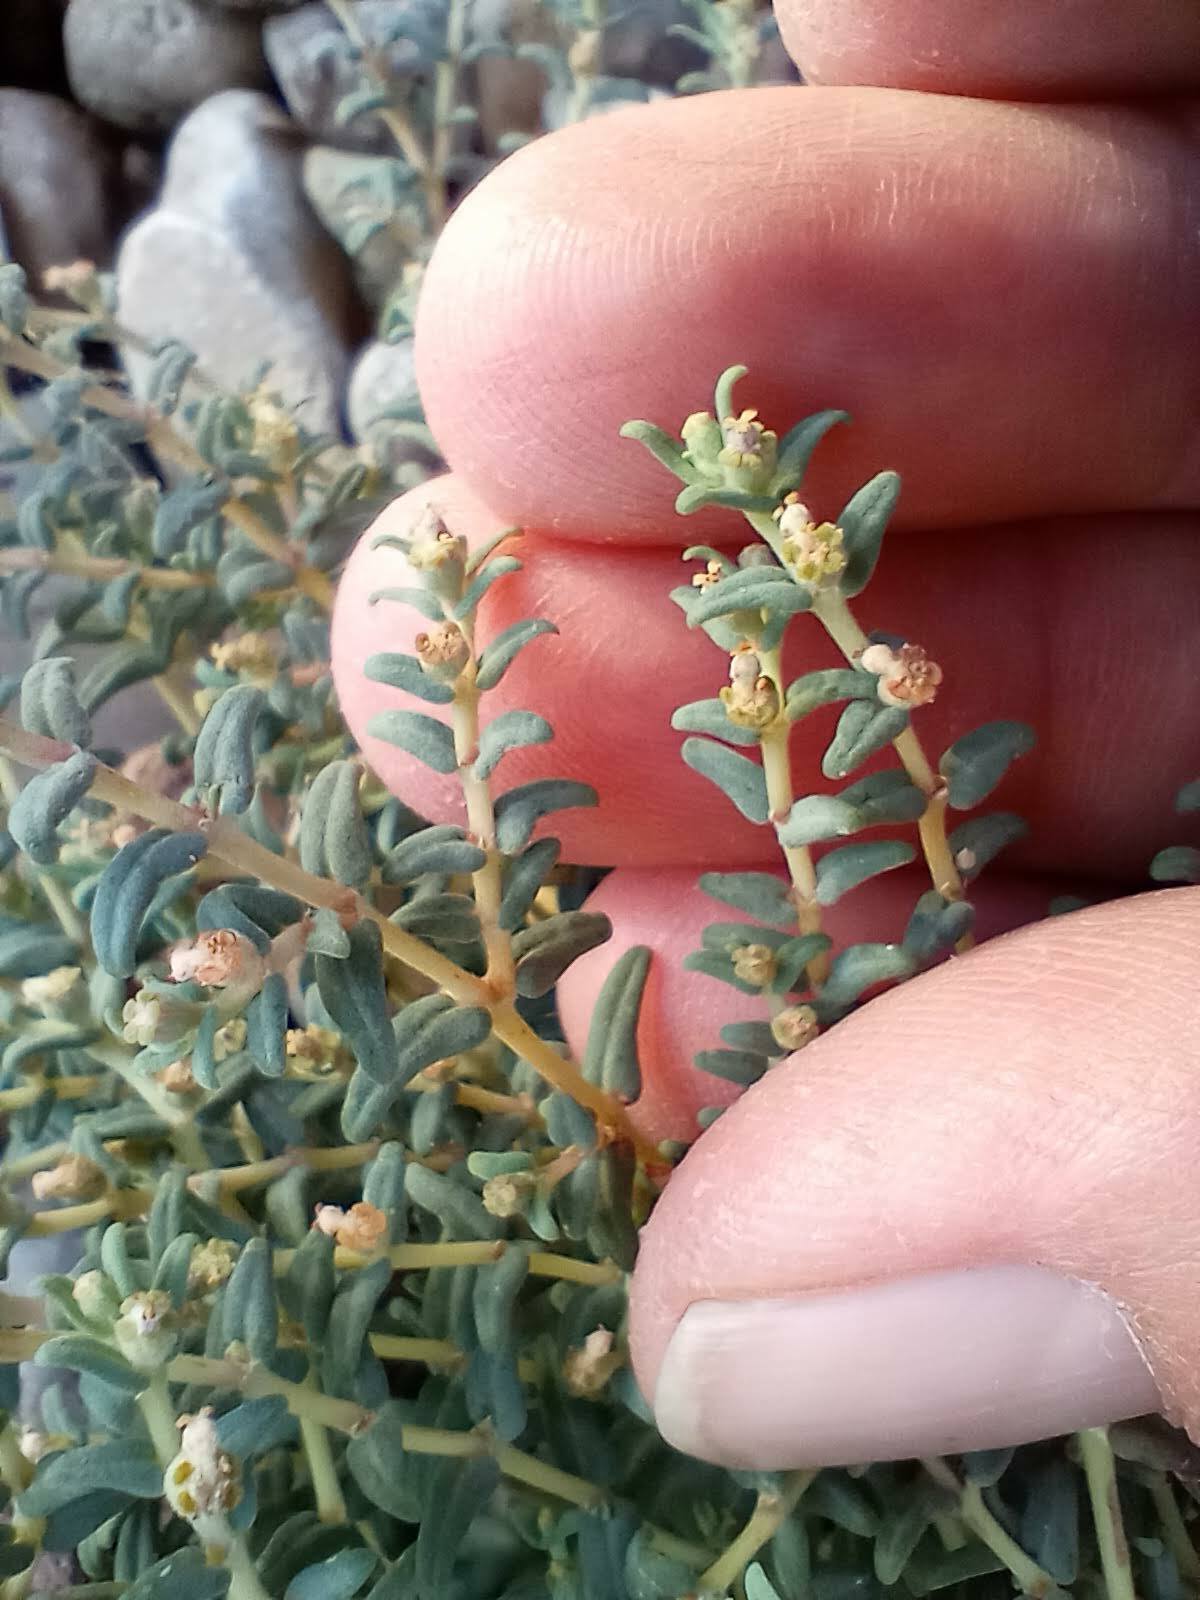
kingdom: Plantae
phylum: Tracheophyta
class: Magnoliopsida
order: Malpighiales
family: Euphorbiaceae
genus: Euphorbia
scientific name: Euphorbia lata
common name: Hoary euphorbia
